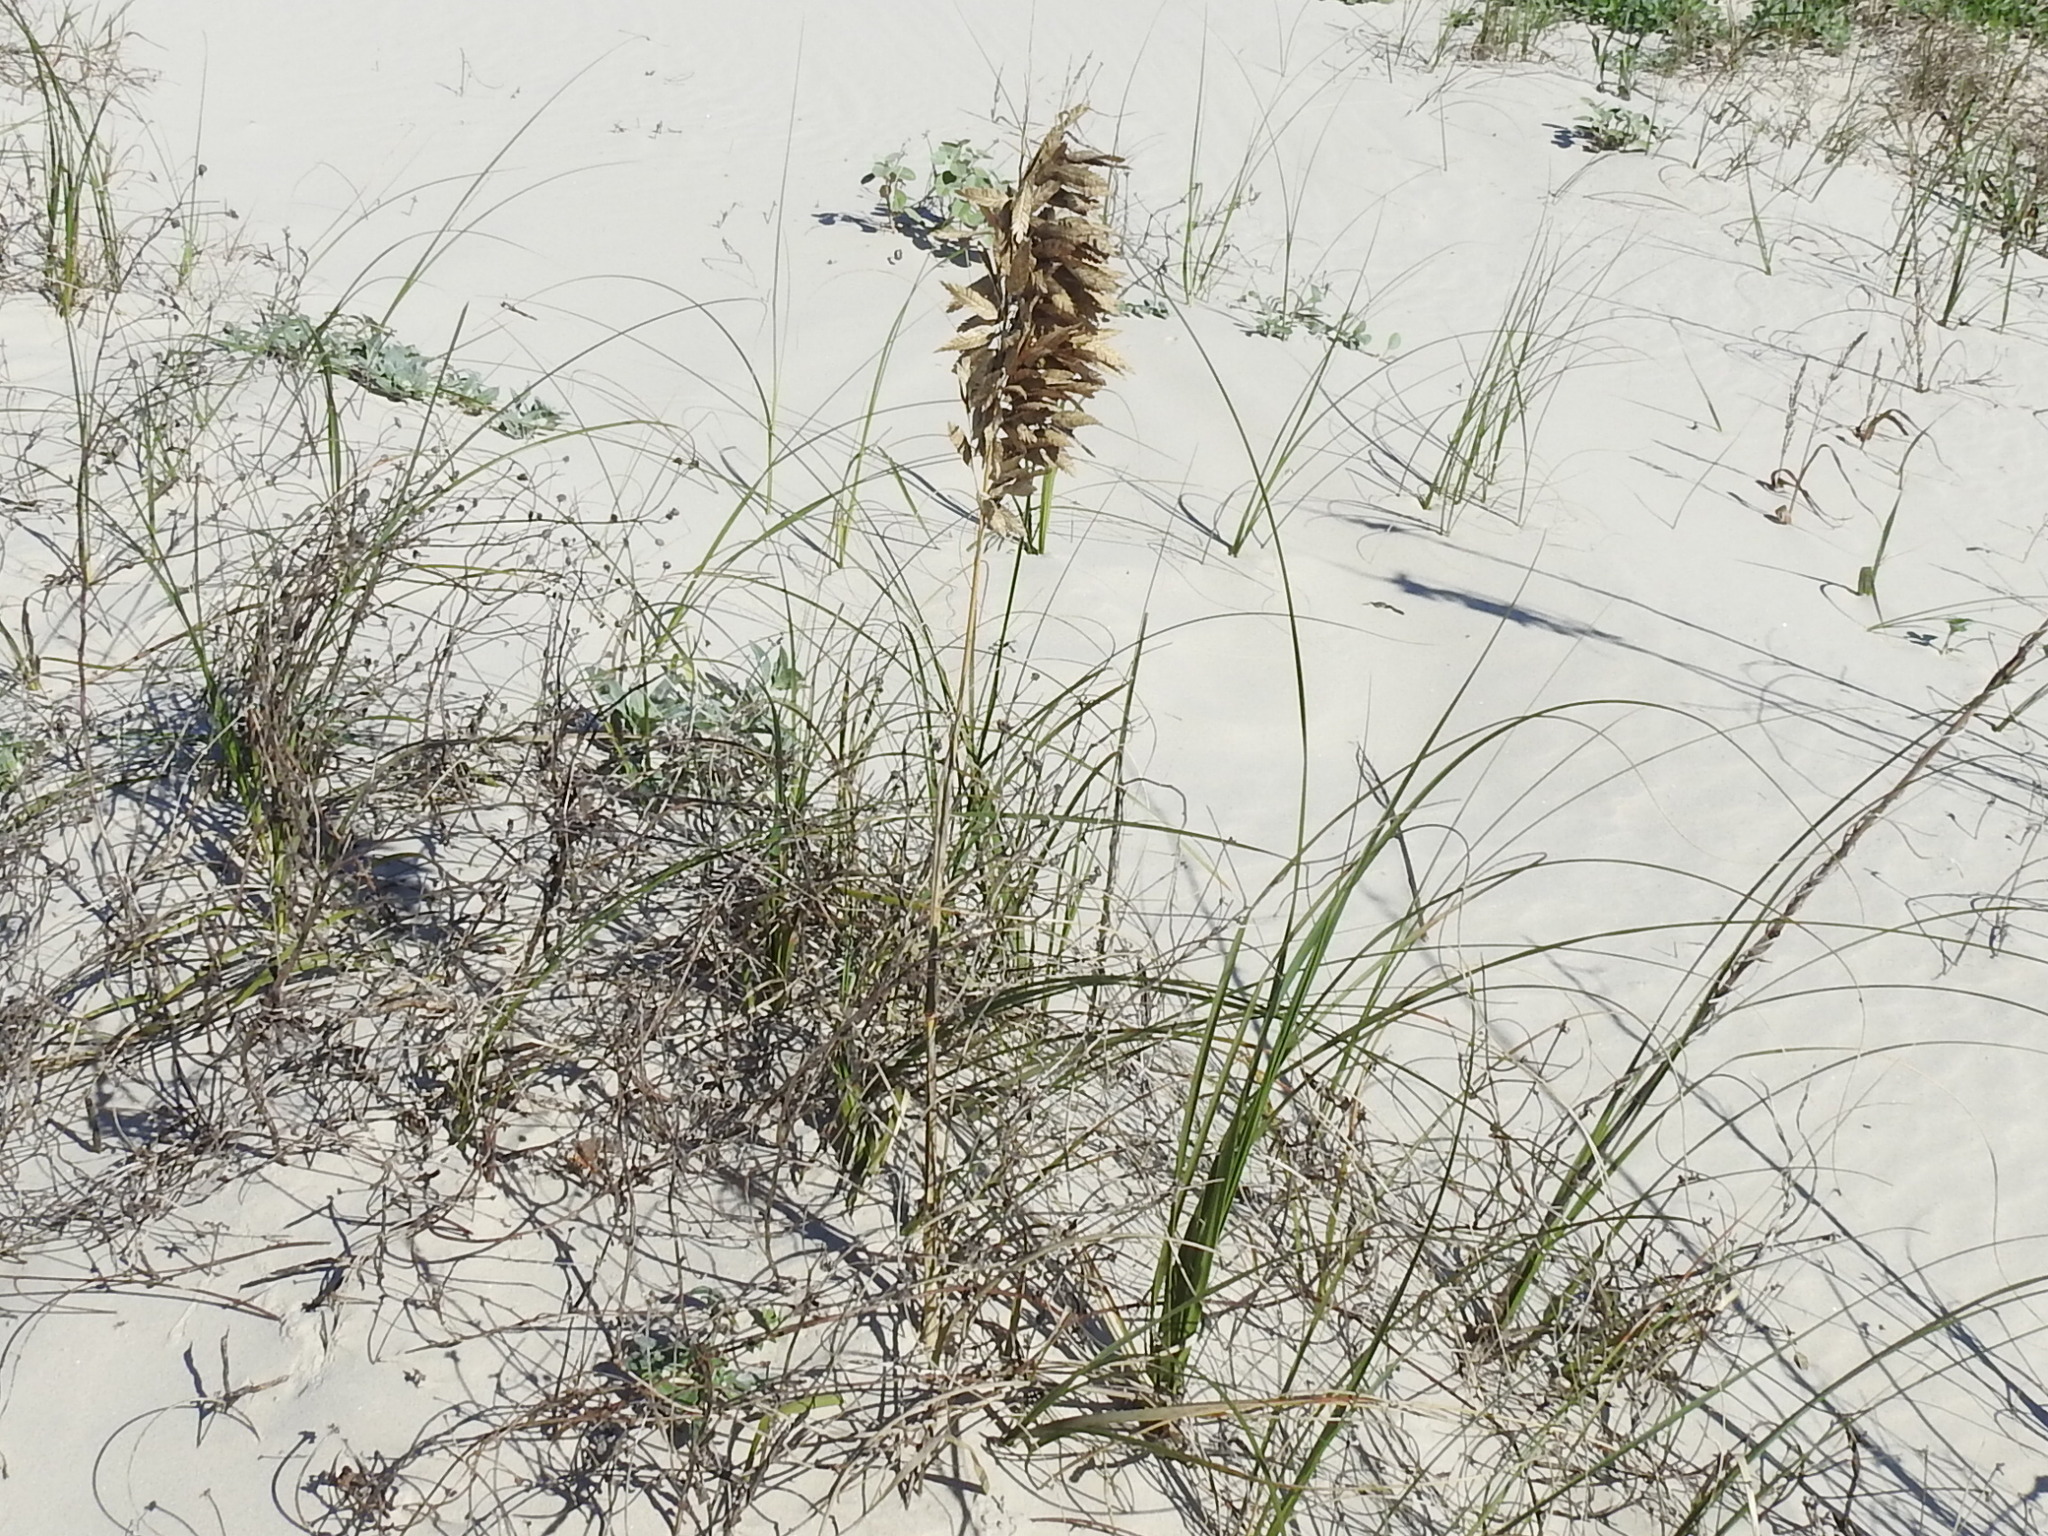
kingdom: Plantae
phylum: Tracheophyta
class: Liliopsida
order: Poales
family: Poaceae
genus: Uniola
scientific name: Uniola paniculata
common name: Seaside-oats
